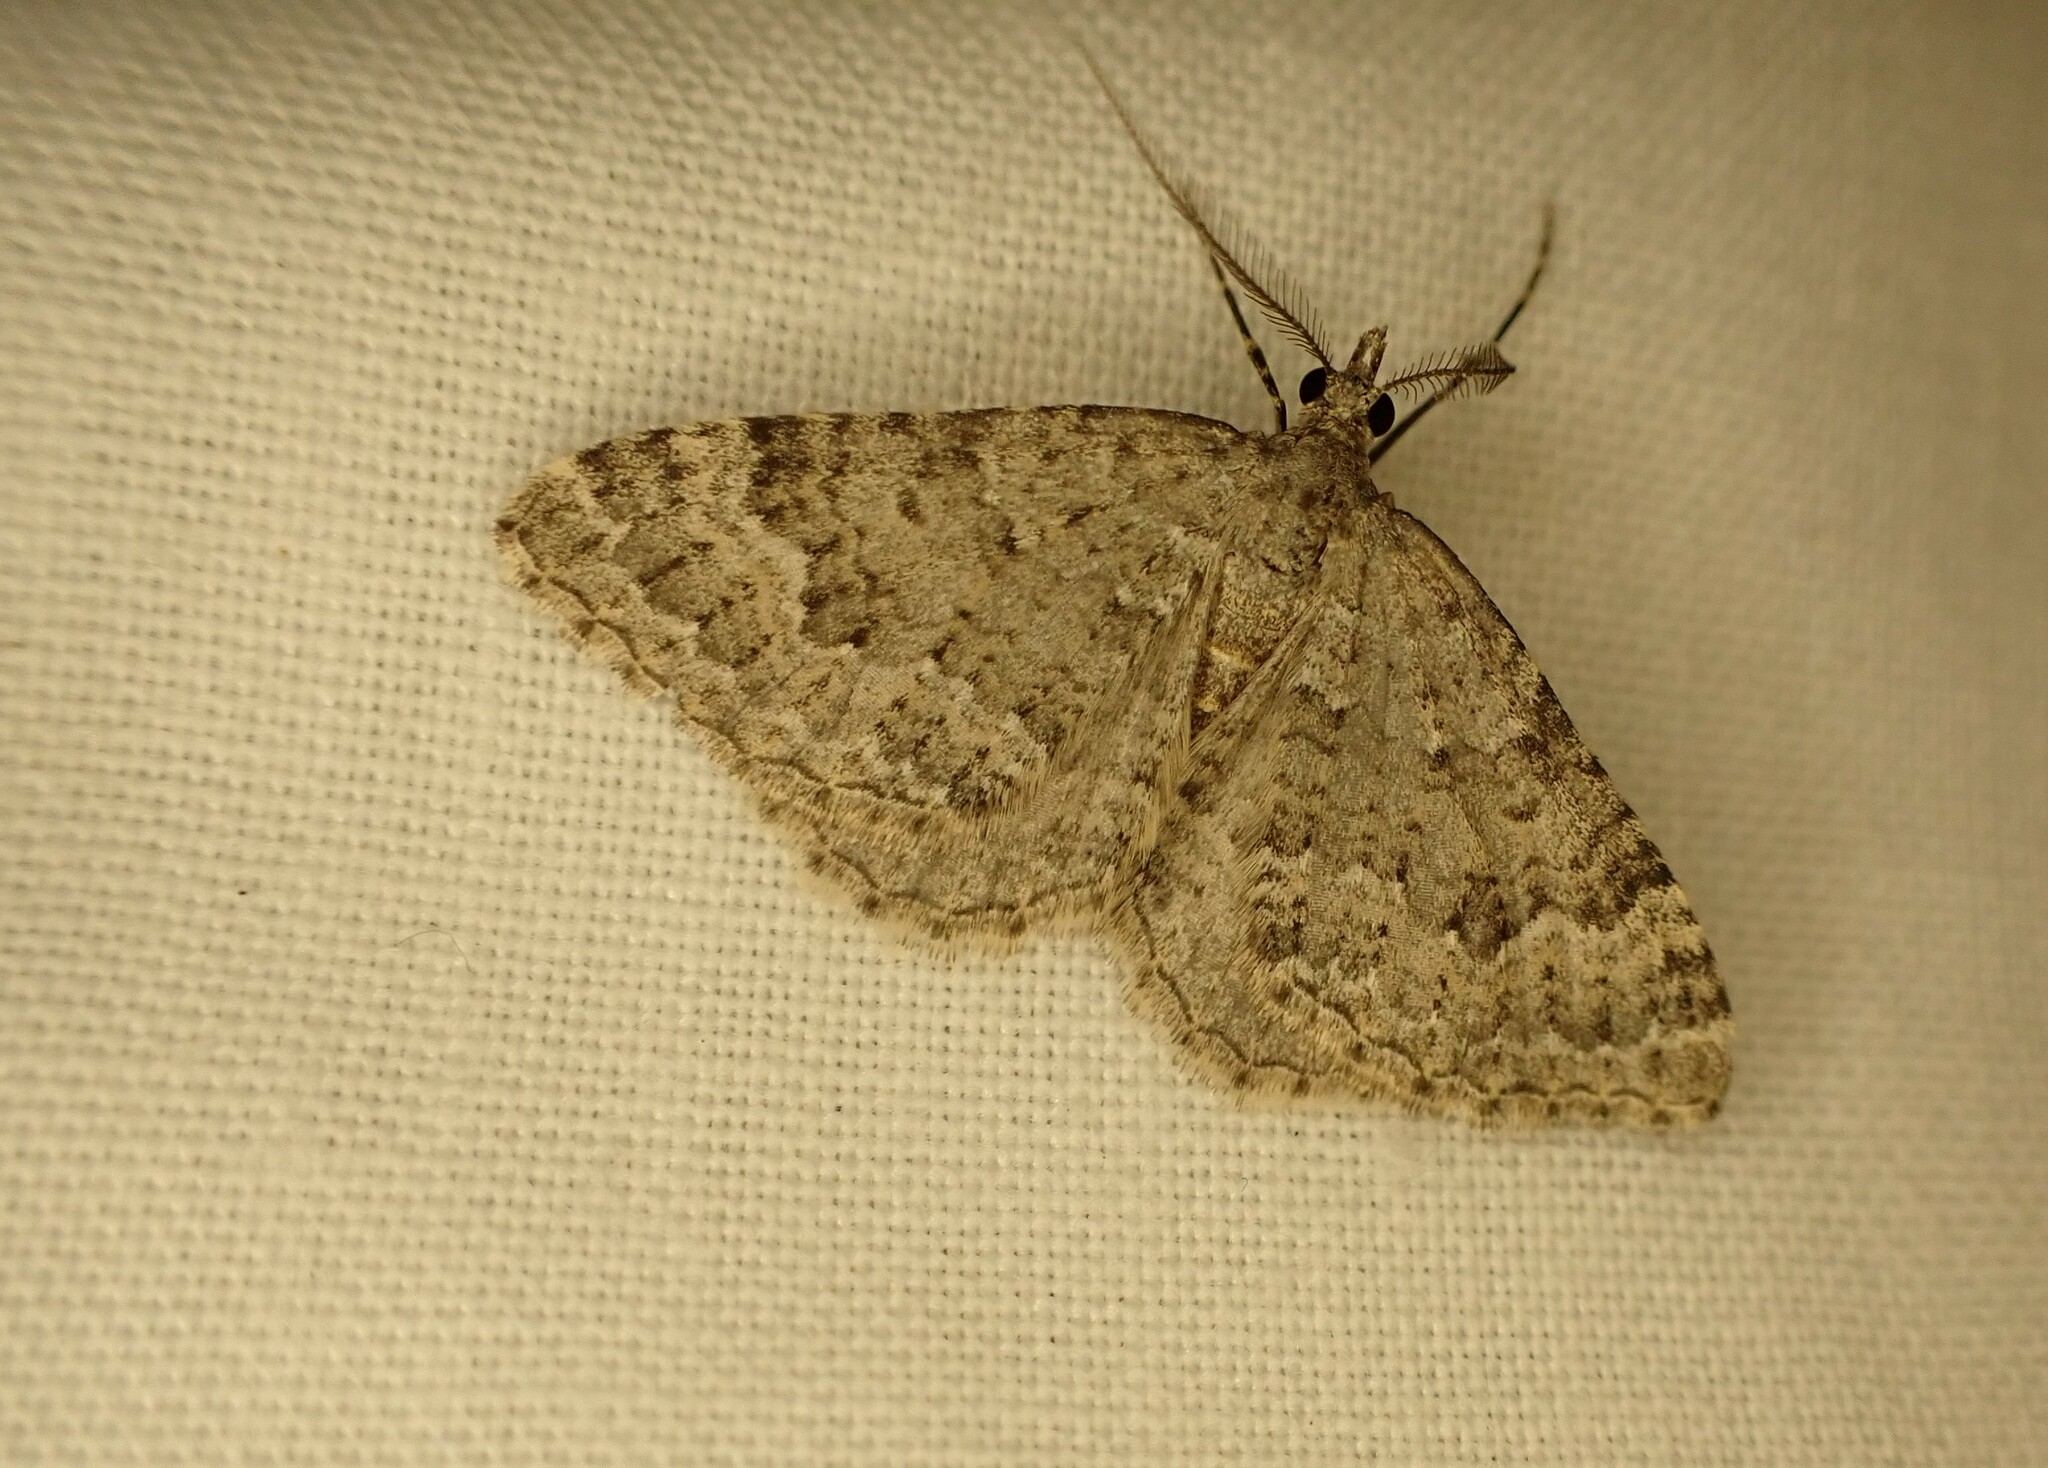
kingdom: Animalia
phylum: Arthropoda
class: Insecta
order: Lepidoptera
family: Geometridae
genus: Helastia
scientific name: Helastia corcularia
